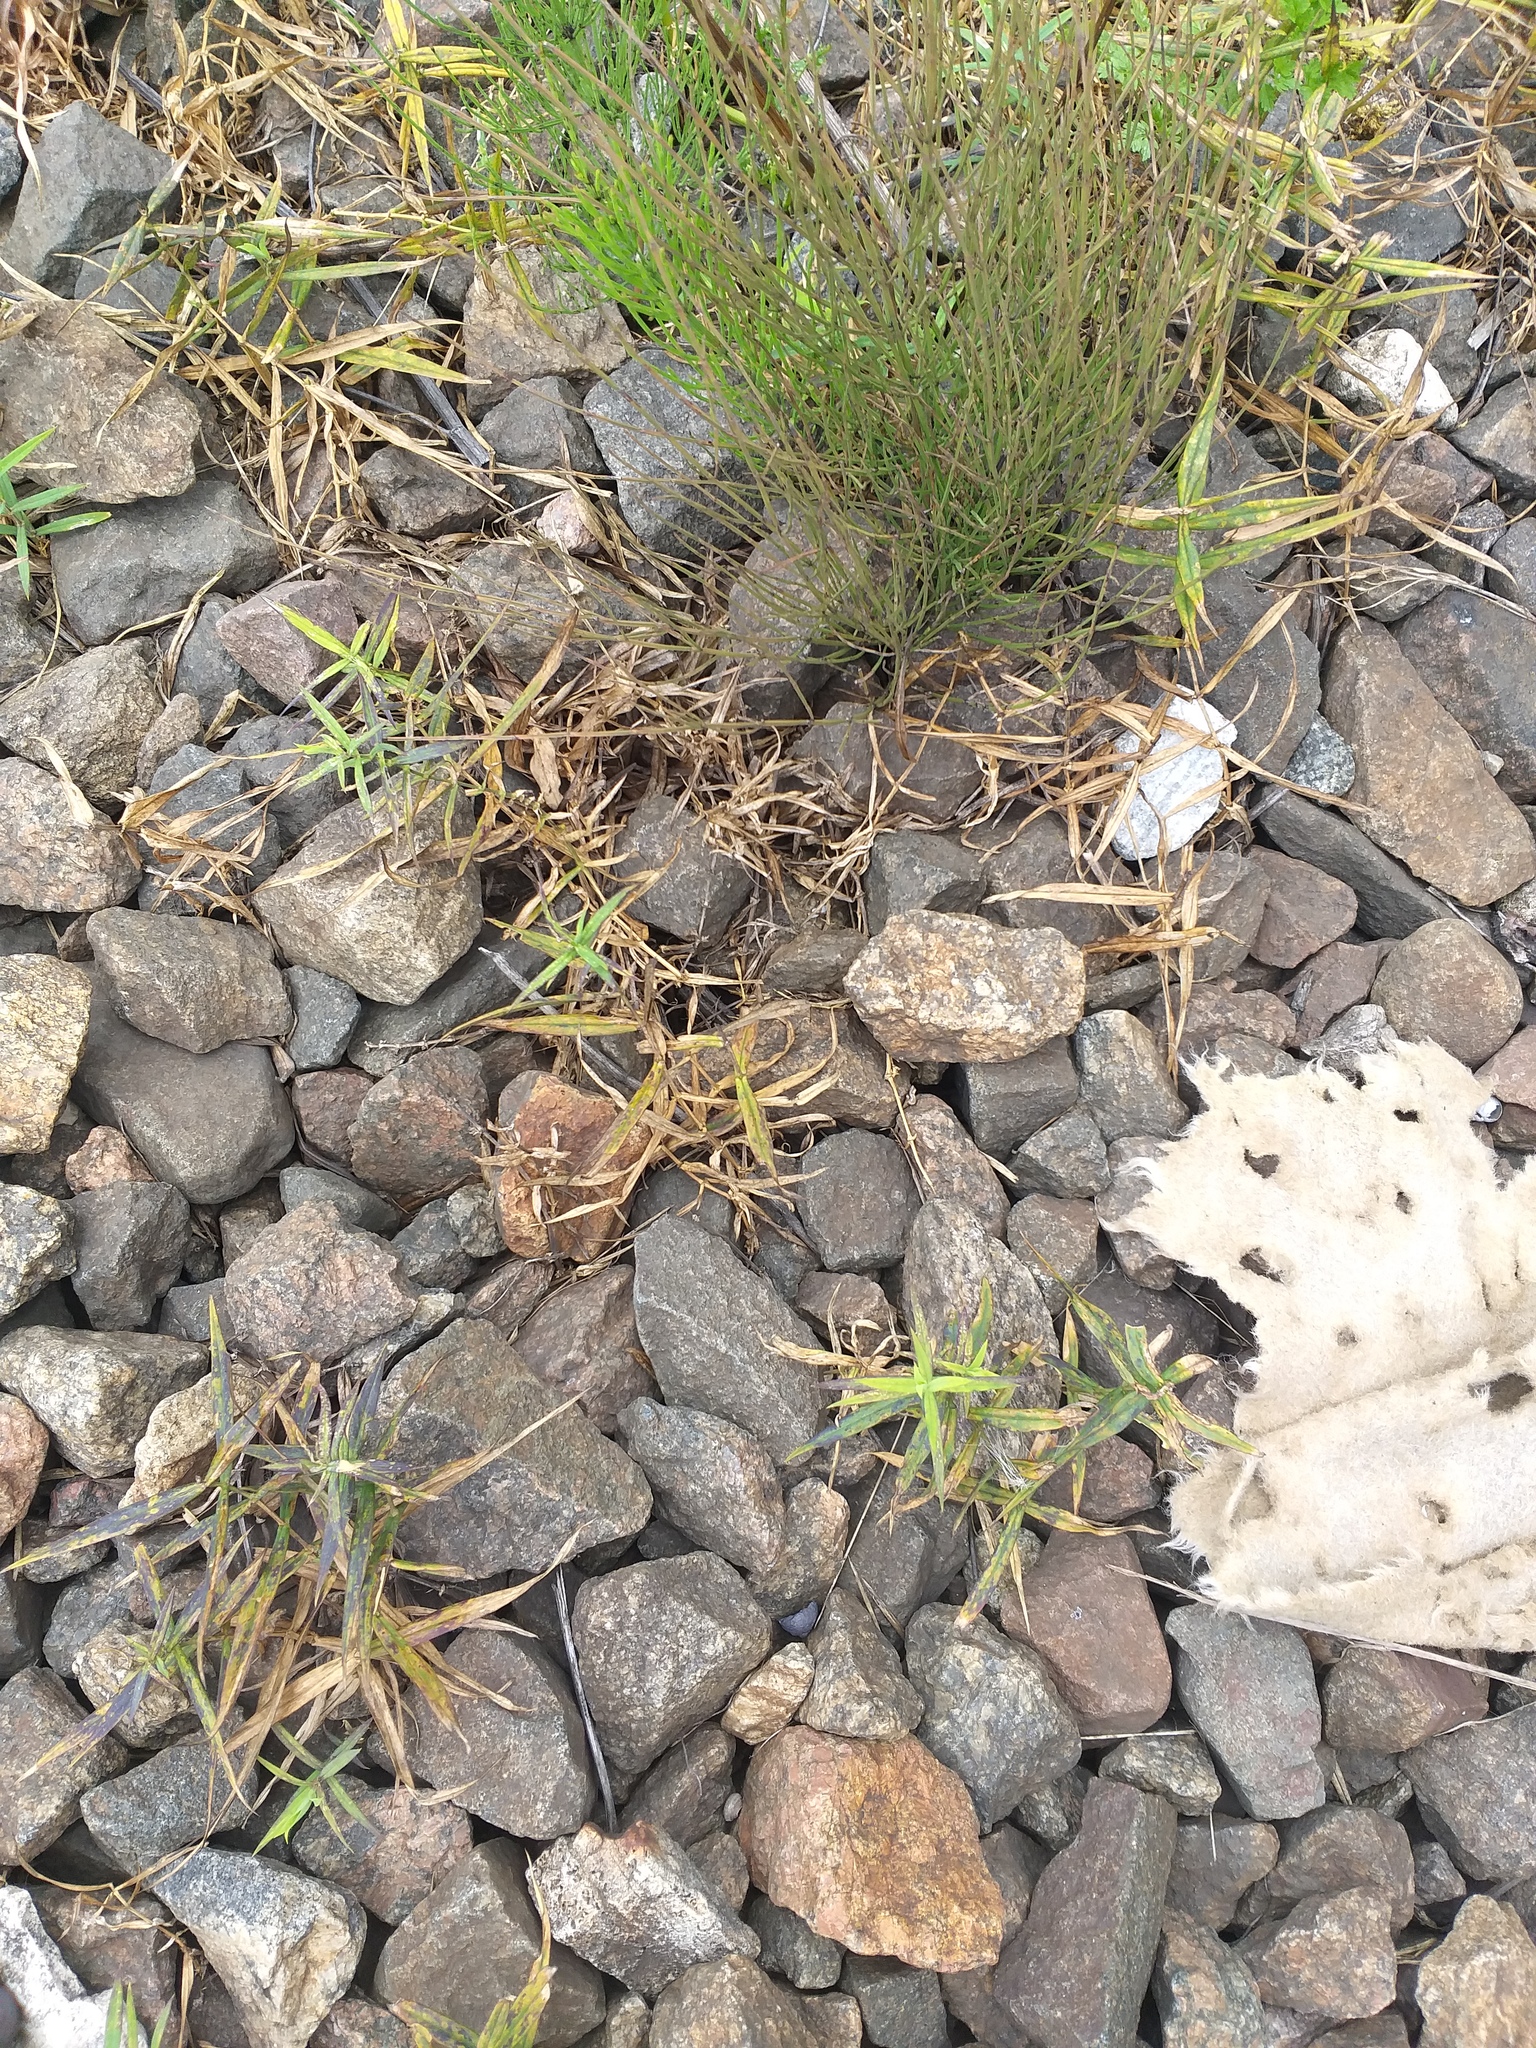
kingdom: Plantae
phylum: Tracheophyta
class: Magnoliopsida
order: Caryophyllales
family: Caryophyllaceae
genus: Rabelera
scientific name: Rabelera holostea
